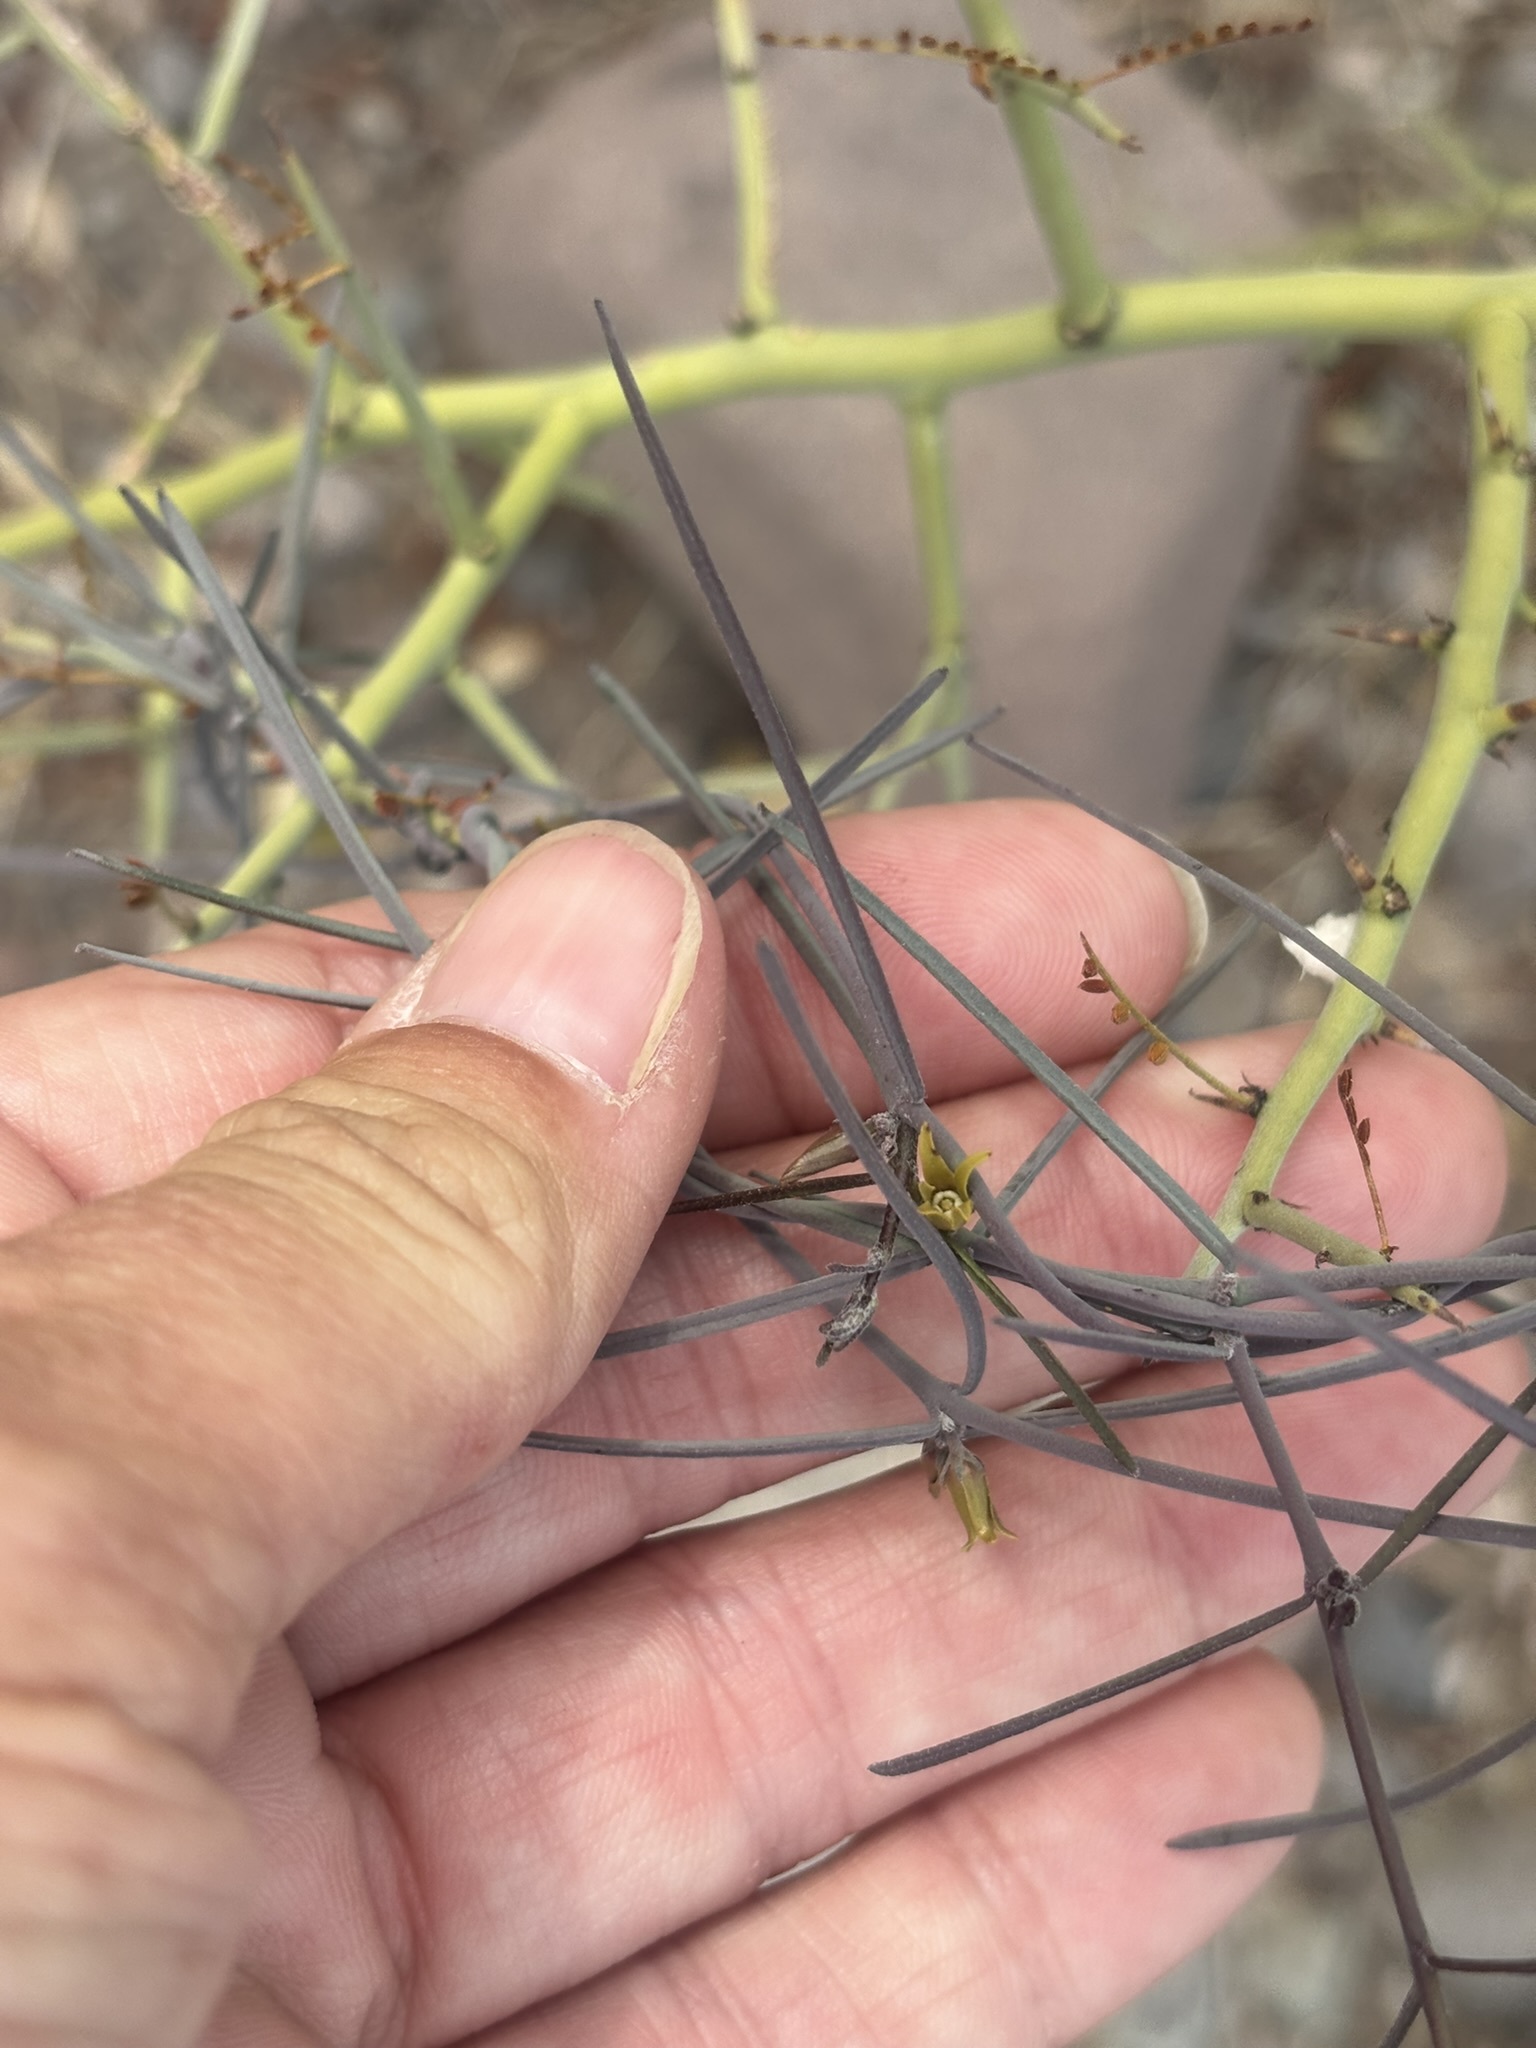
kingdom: Plantae
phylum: Tracheophyta
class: Magnoliopsida
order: Gentianales
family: Apocynaceae
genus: Pattalias
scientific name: Pattalias palmeri
